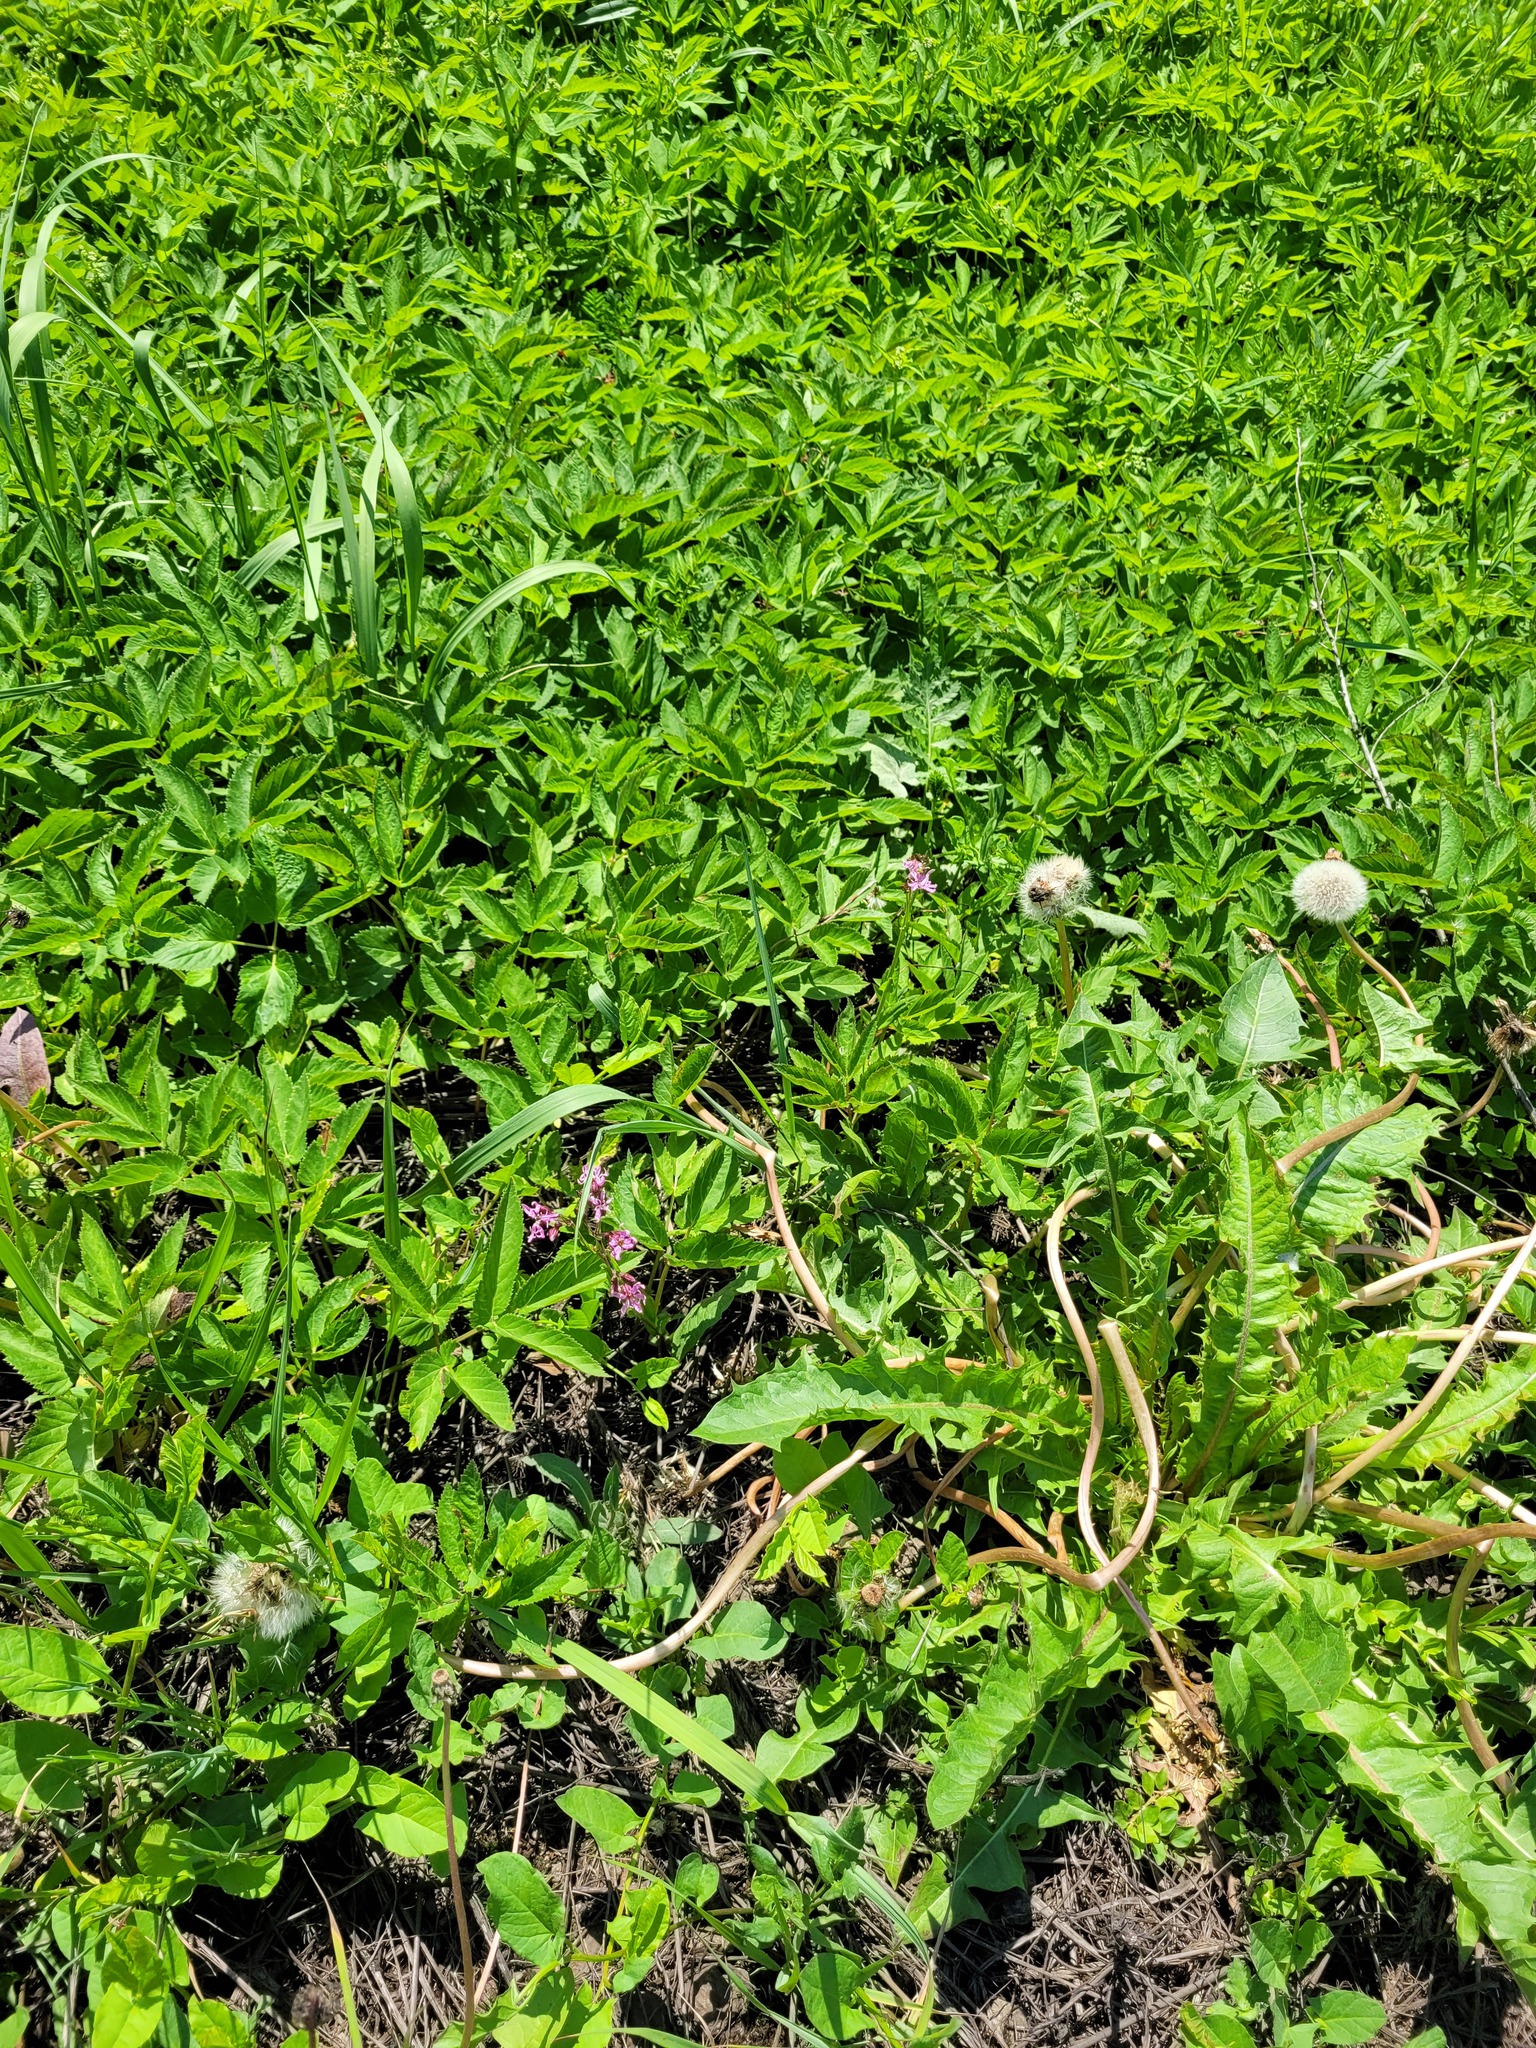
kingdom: Plantae
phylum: Tracheophyta
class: Magnoliopsida
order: Caryophyllales
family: Caryophyllaceae
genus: Silene
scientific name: Silene flos-cuculi
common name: Ragged-robin
